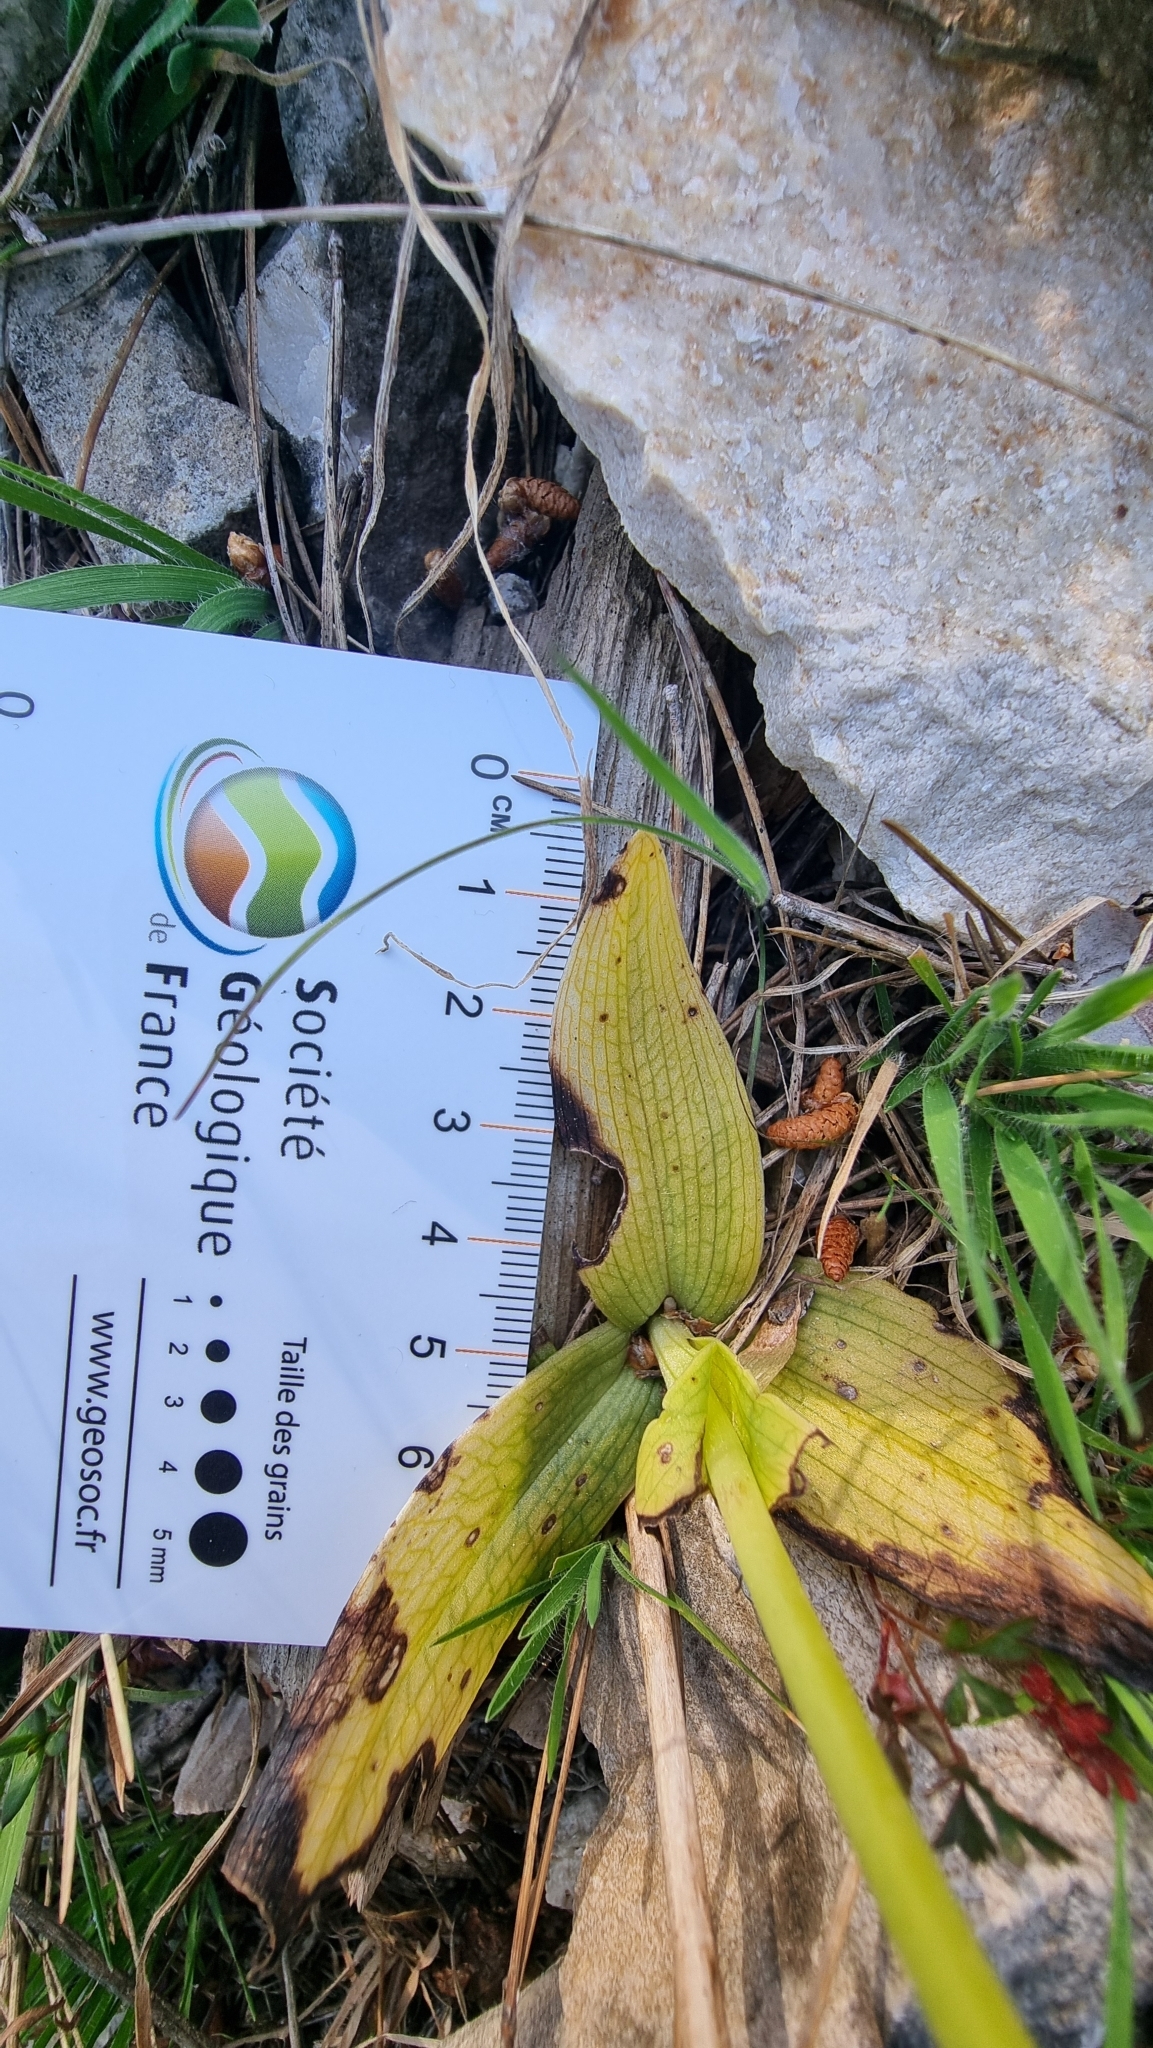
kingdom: Plantae
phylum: Tracheophyta
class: Liliopsida
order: Asparagales
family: Orchidaceae
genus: Ophrys
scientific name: Ophrys fusca
